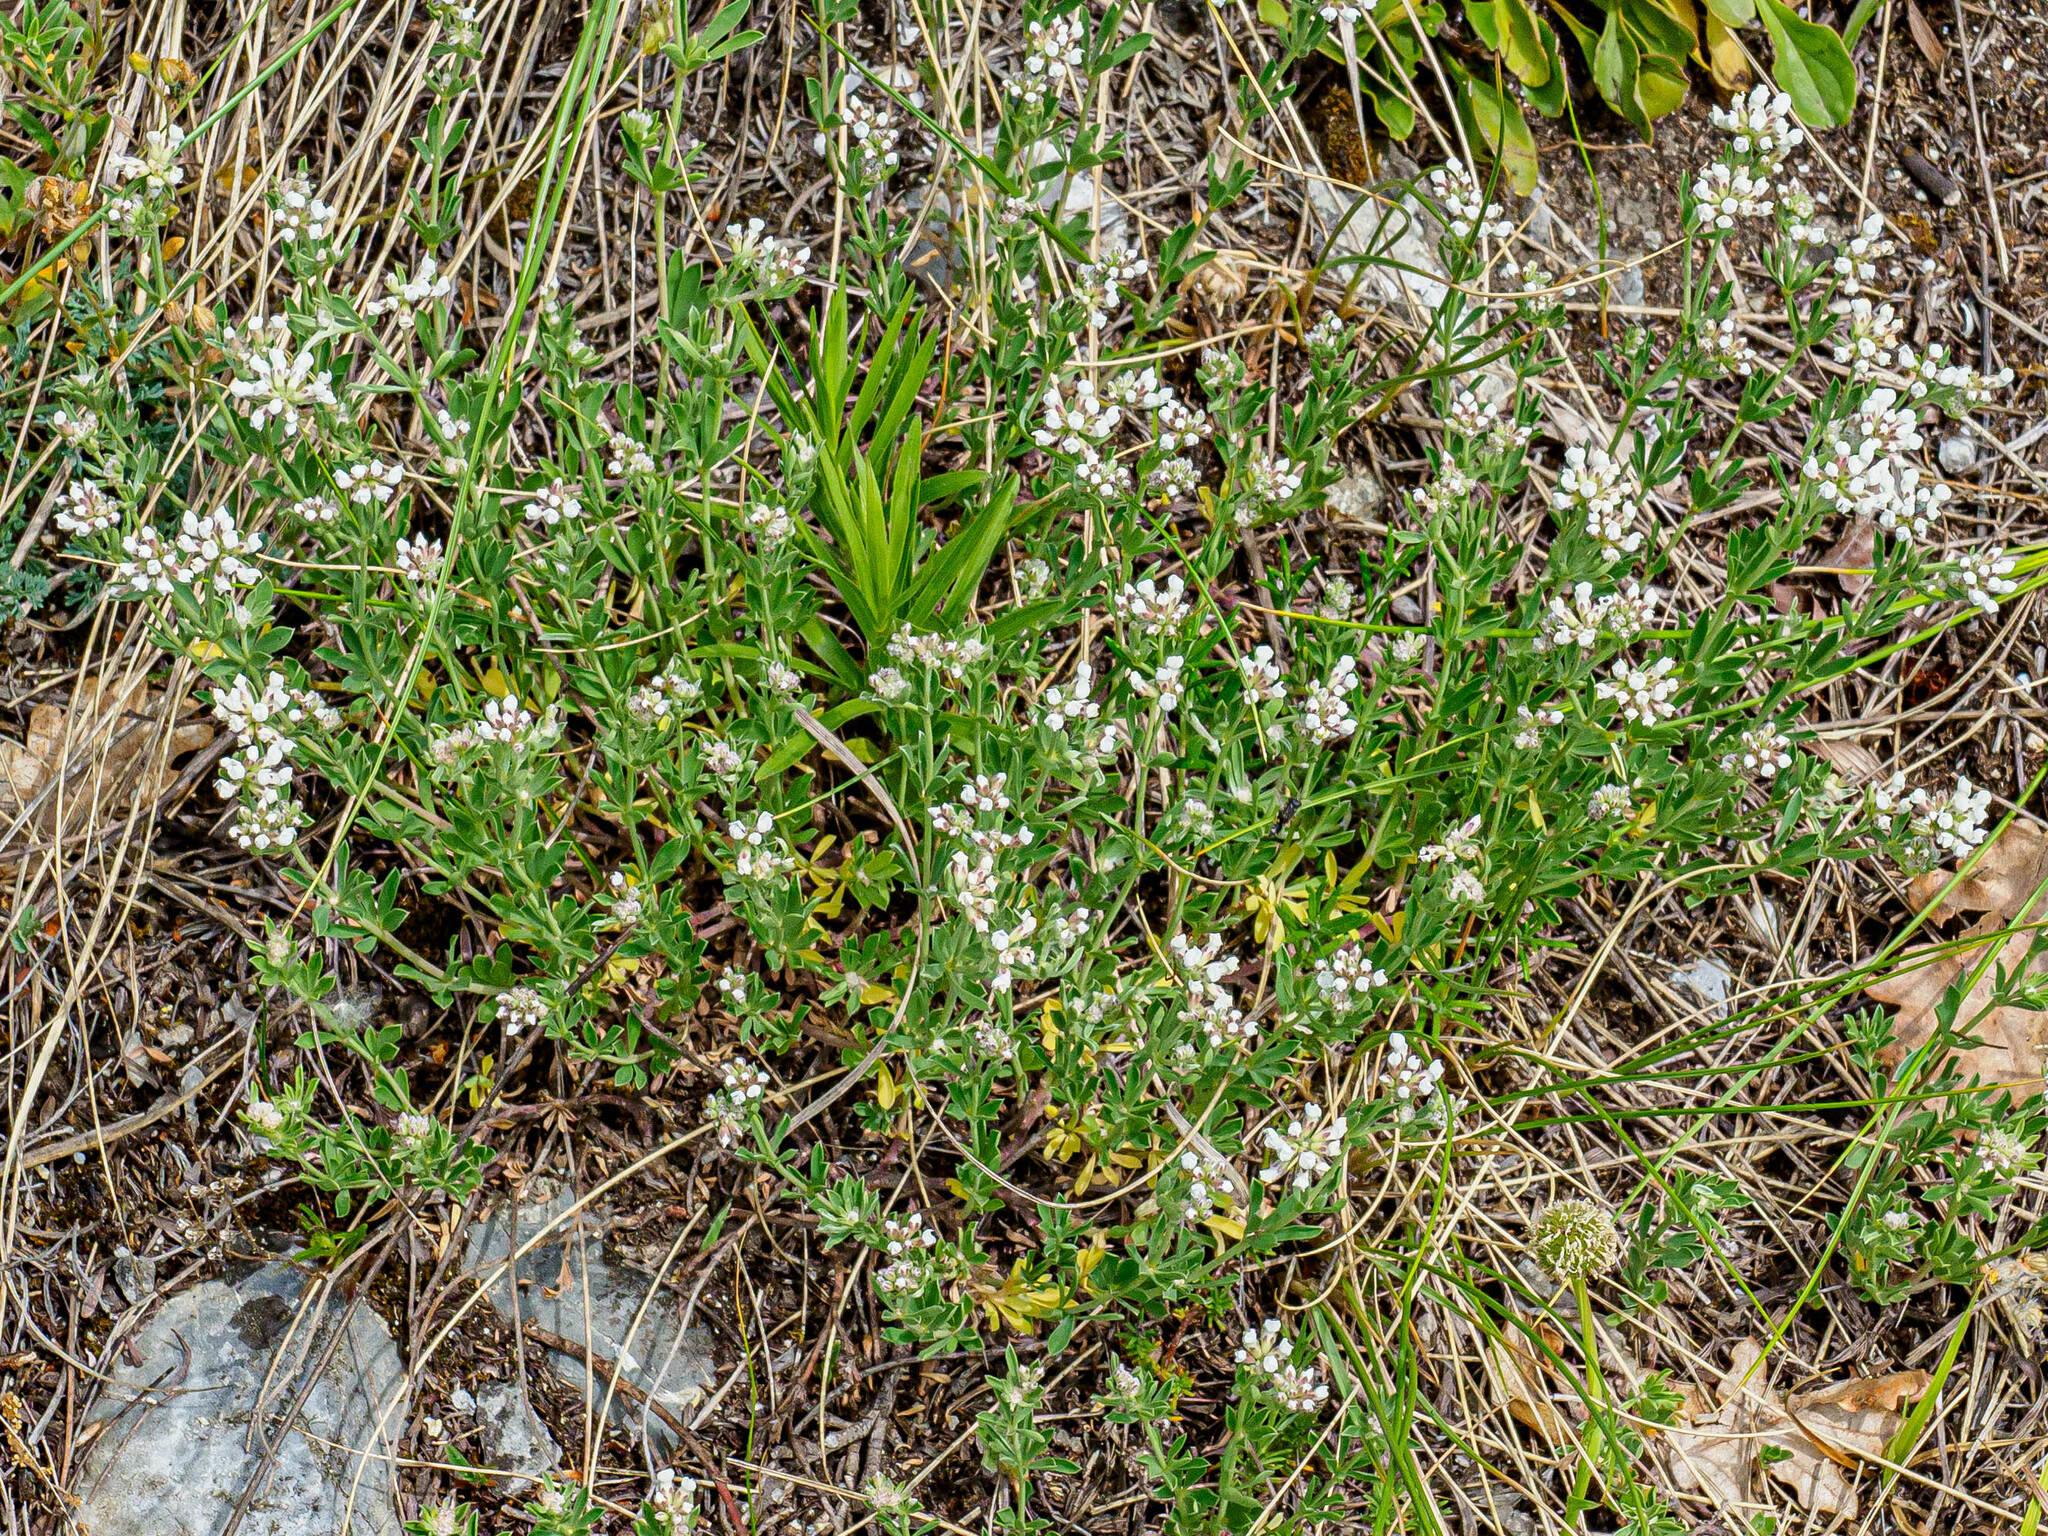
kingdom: Plantae
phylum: Tracheophyta
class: Magnoliopsida
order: Fabales
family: Fabaceae
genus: Lotus
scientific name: Lotus germanicus
